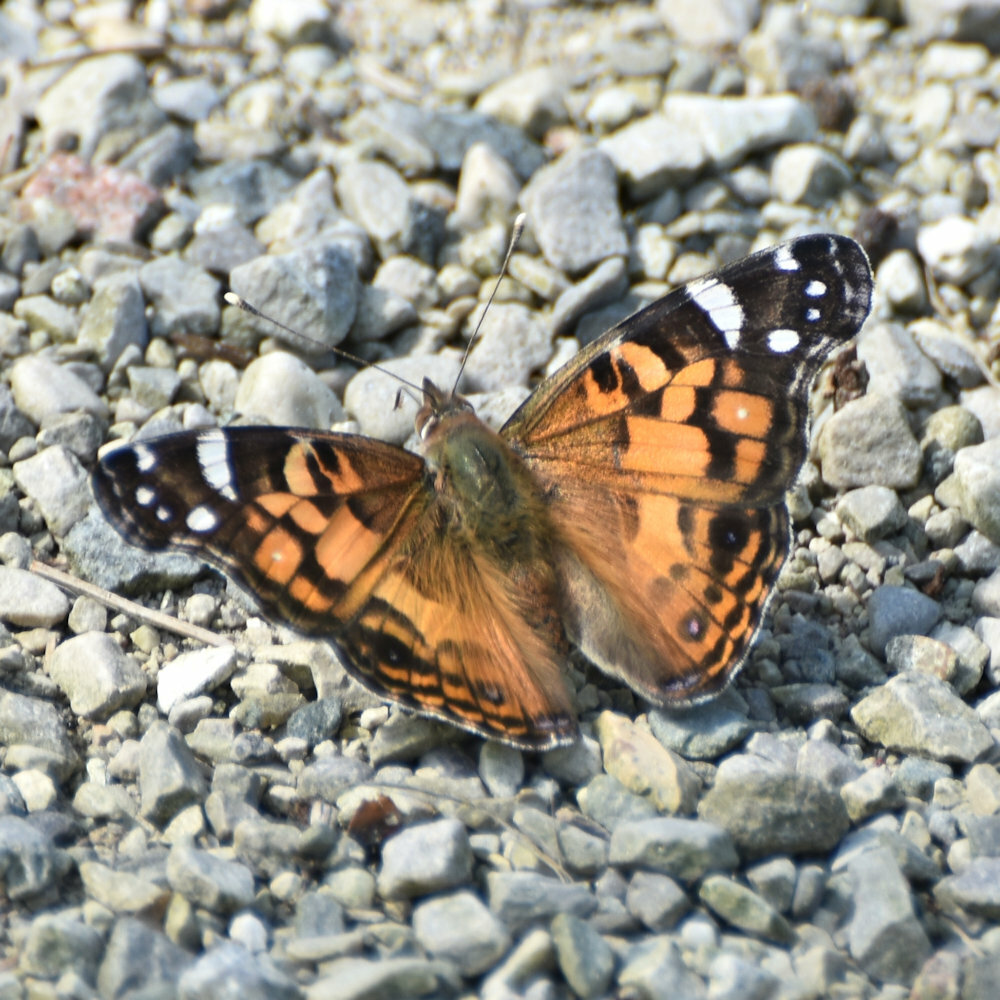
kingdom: Animalia
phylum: Arthropoda
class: Insecta
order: Lepidoptera
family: Nymphalidae
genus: Vanessa
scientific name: Vanessa virginiensis
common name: American lady
